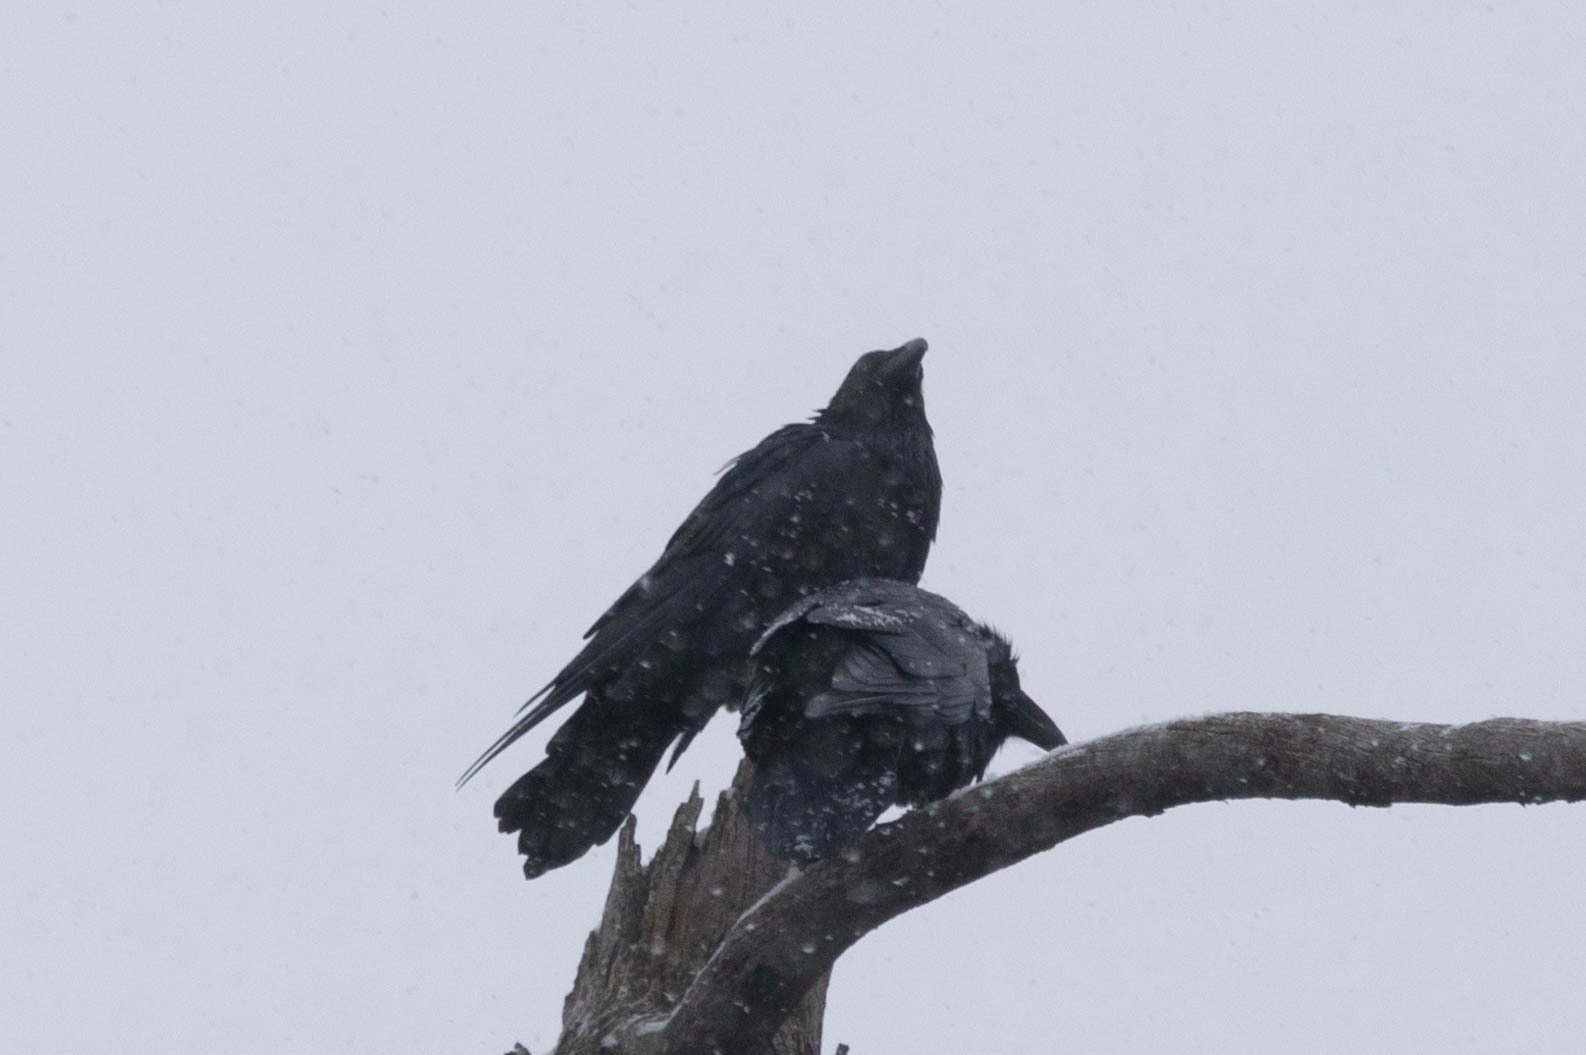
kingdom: Animalia
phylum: Chordata
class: Aves
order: Passeriformes
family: Corvidae
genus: Corvus
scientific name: Corvus corax
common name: Common raven
